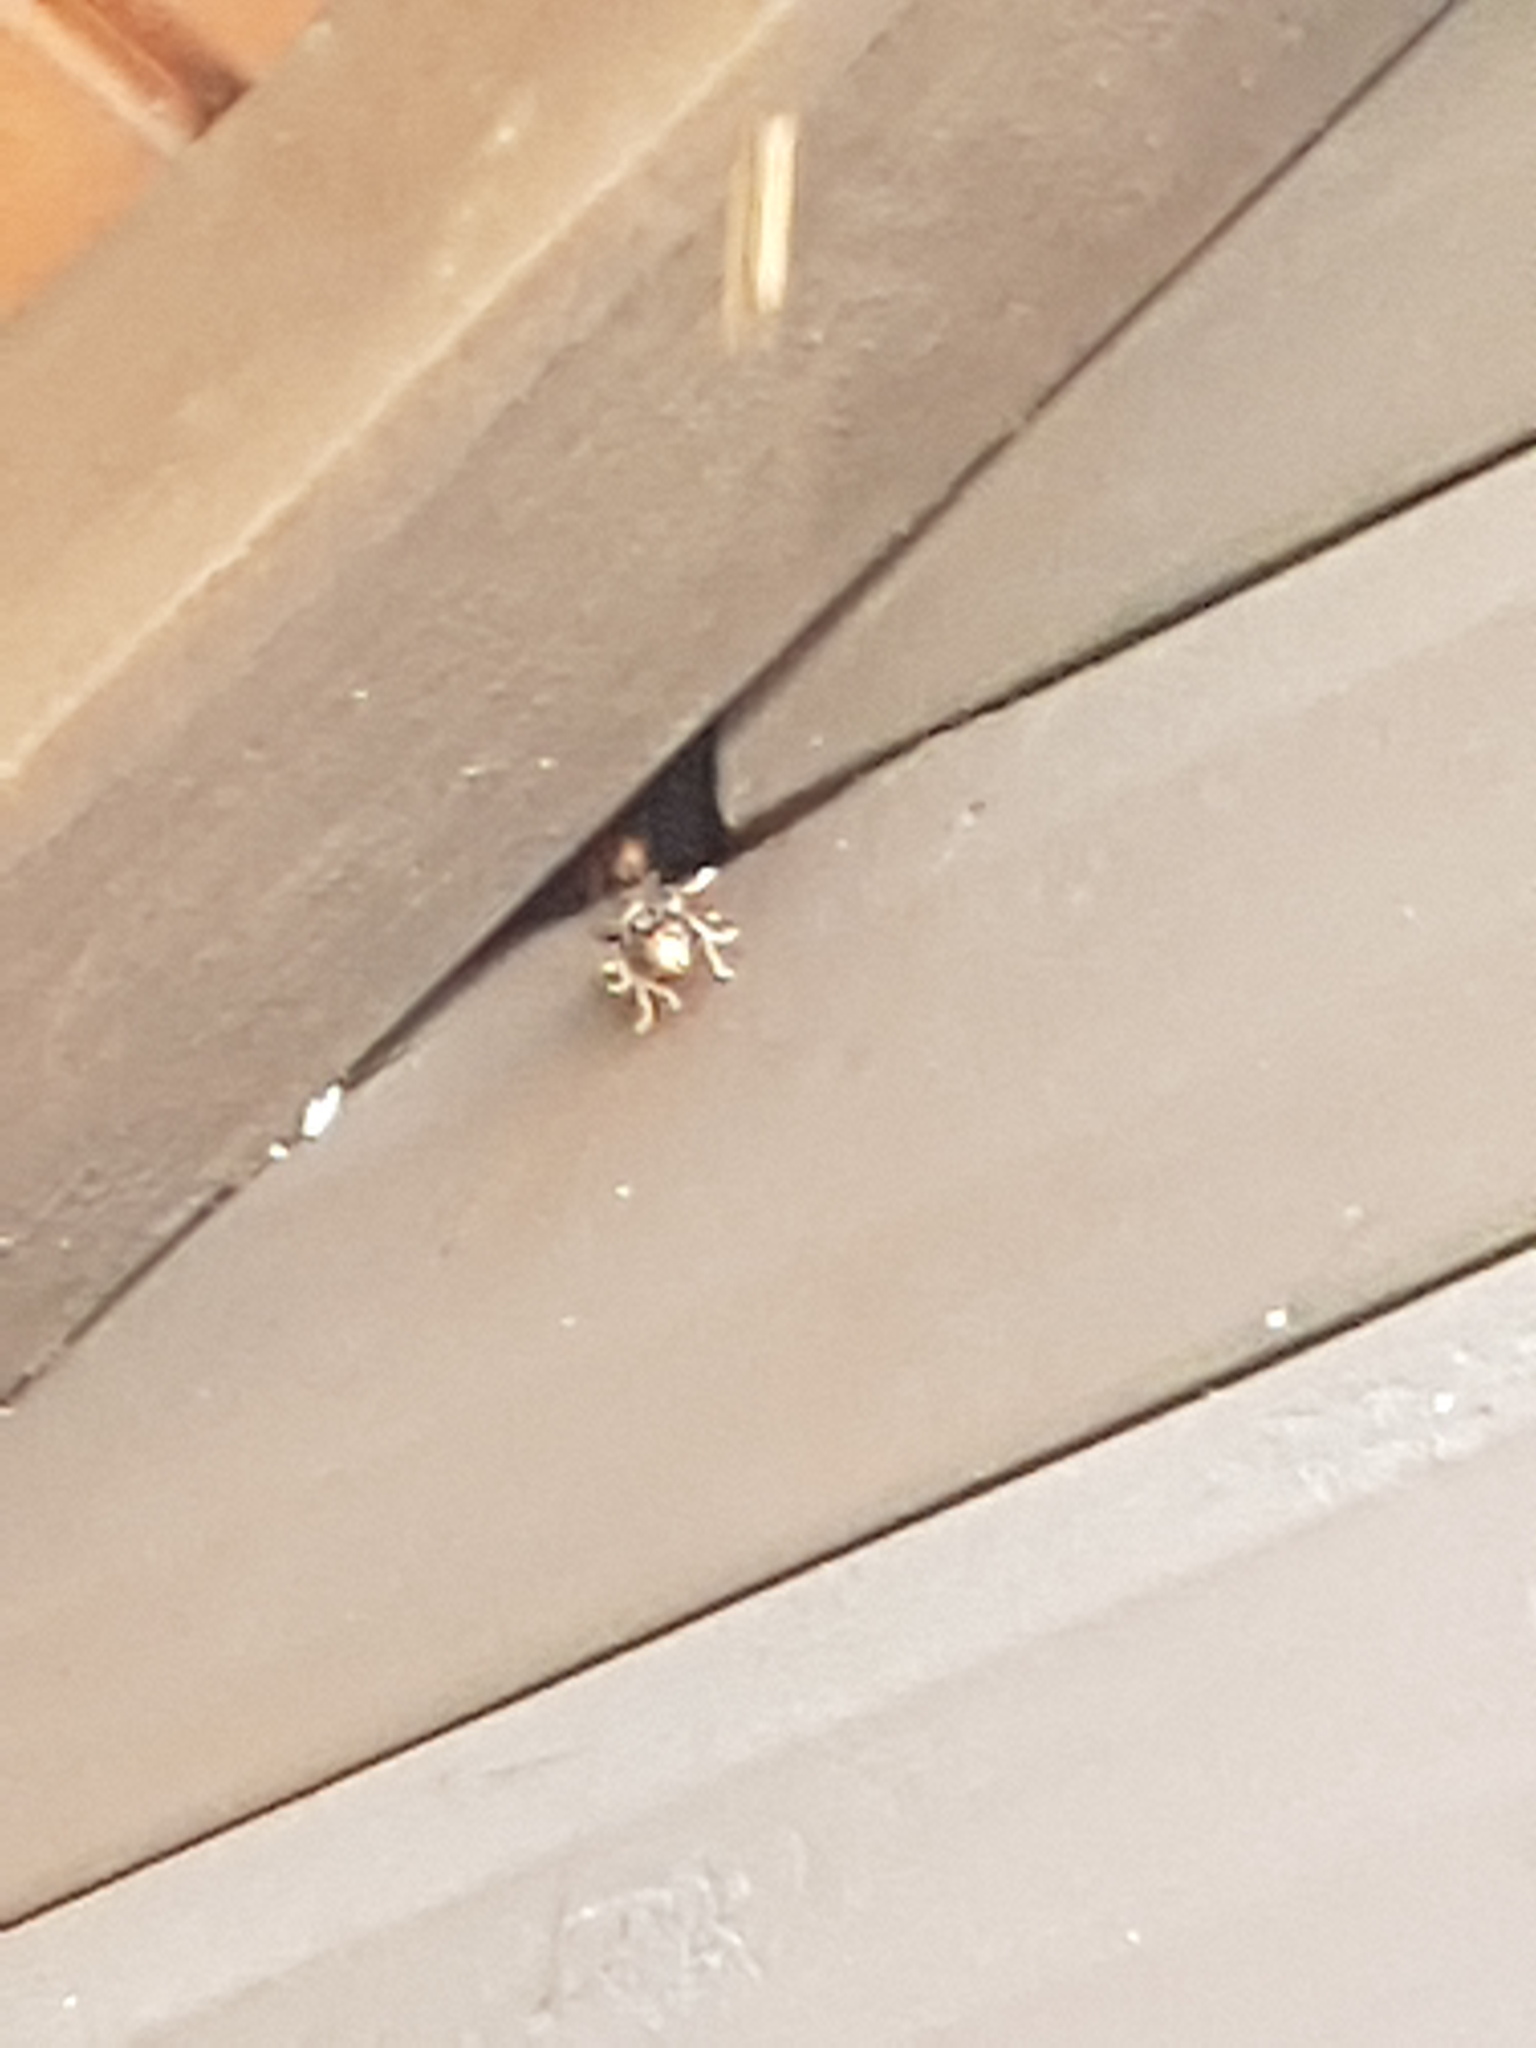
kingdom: Animalia
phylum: Arthropoda
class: Insecta
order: Hymenoptera
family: Vespidae
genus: Vespa
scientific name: Vespa velutina
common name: Asian hornet
